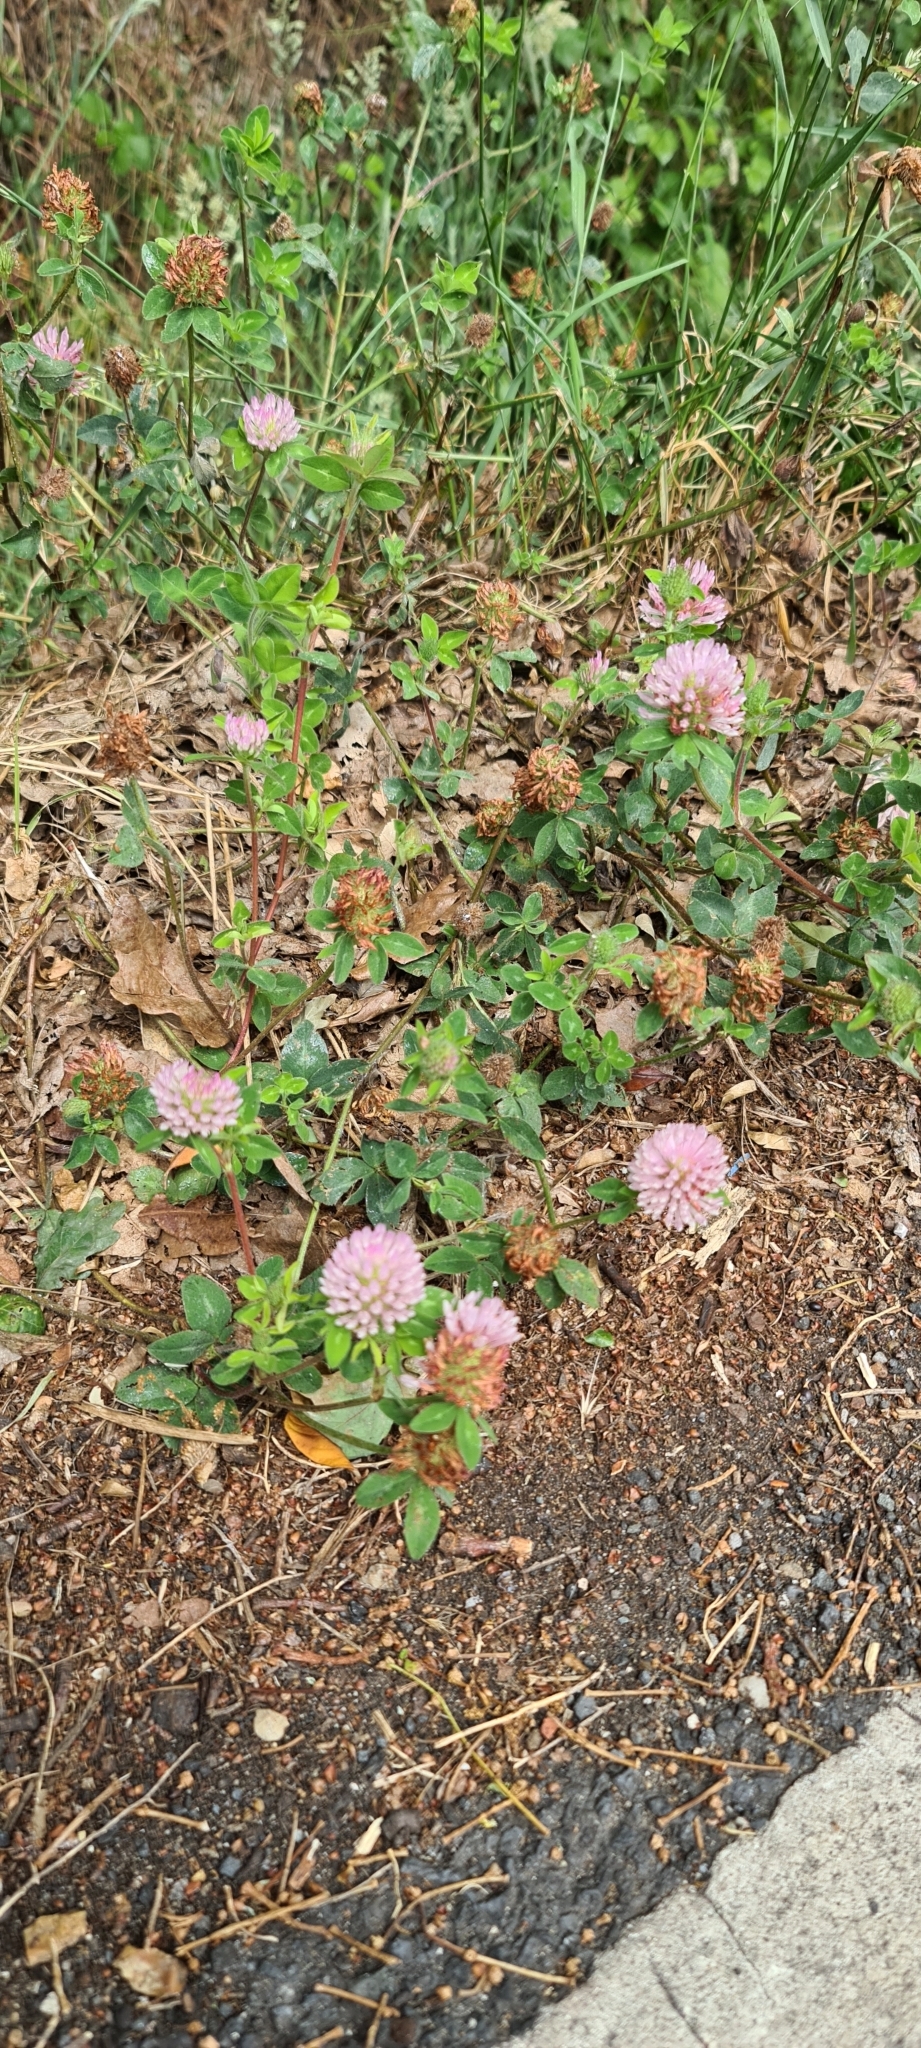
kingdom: Plantae
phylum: Tracheophyta
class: Magnoliopsida
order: Fabales
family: Fabaceae
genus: Trifolium
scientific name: Trifolium pratense
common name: Red clover
